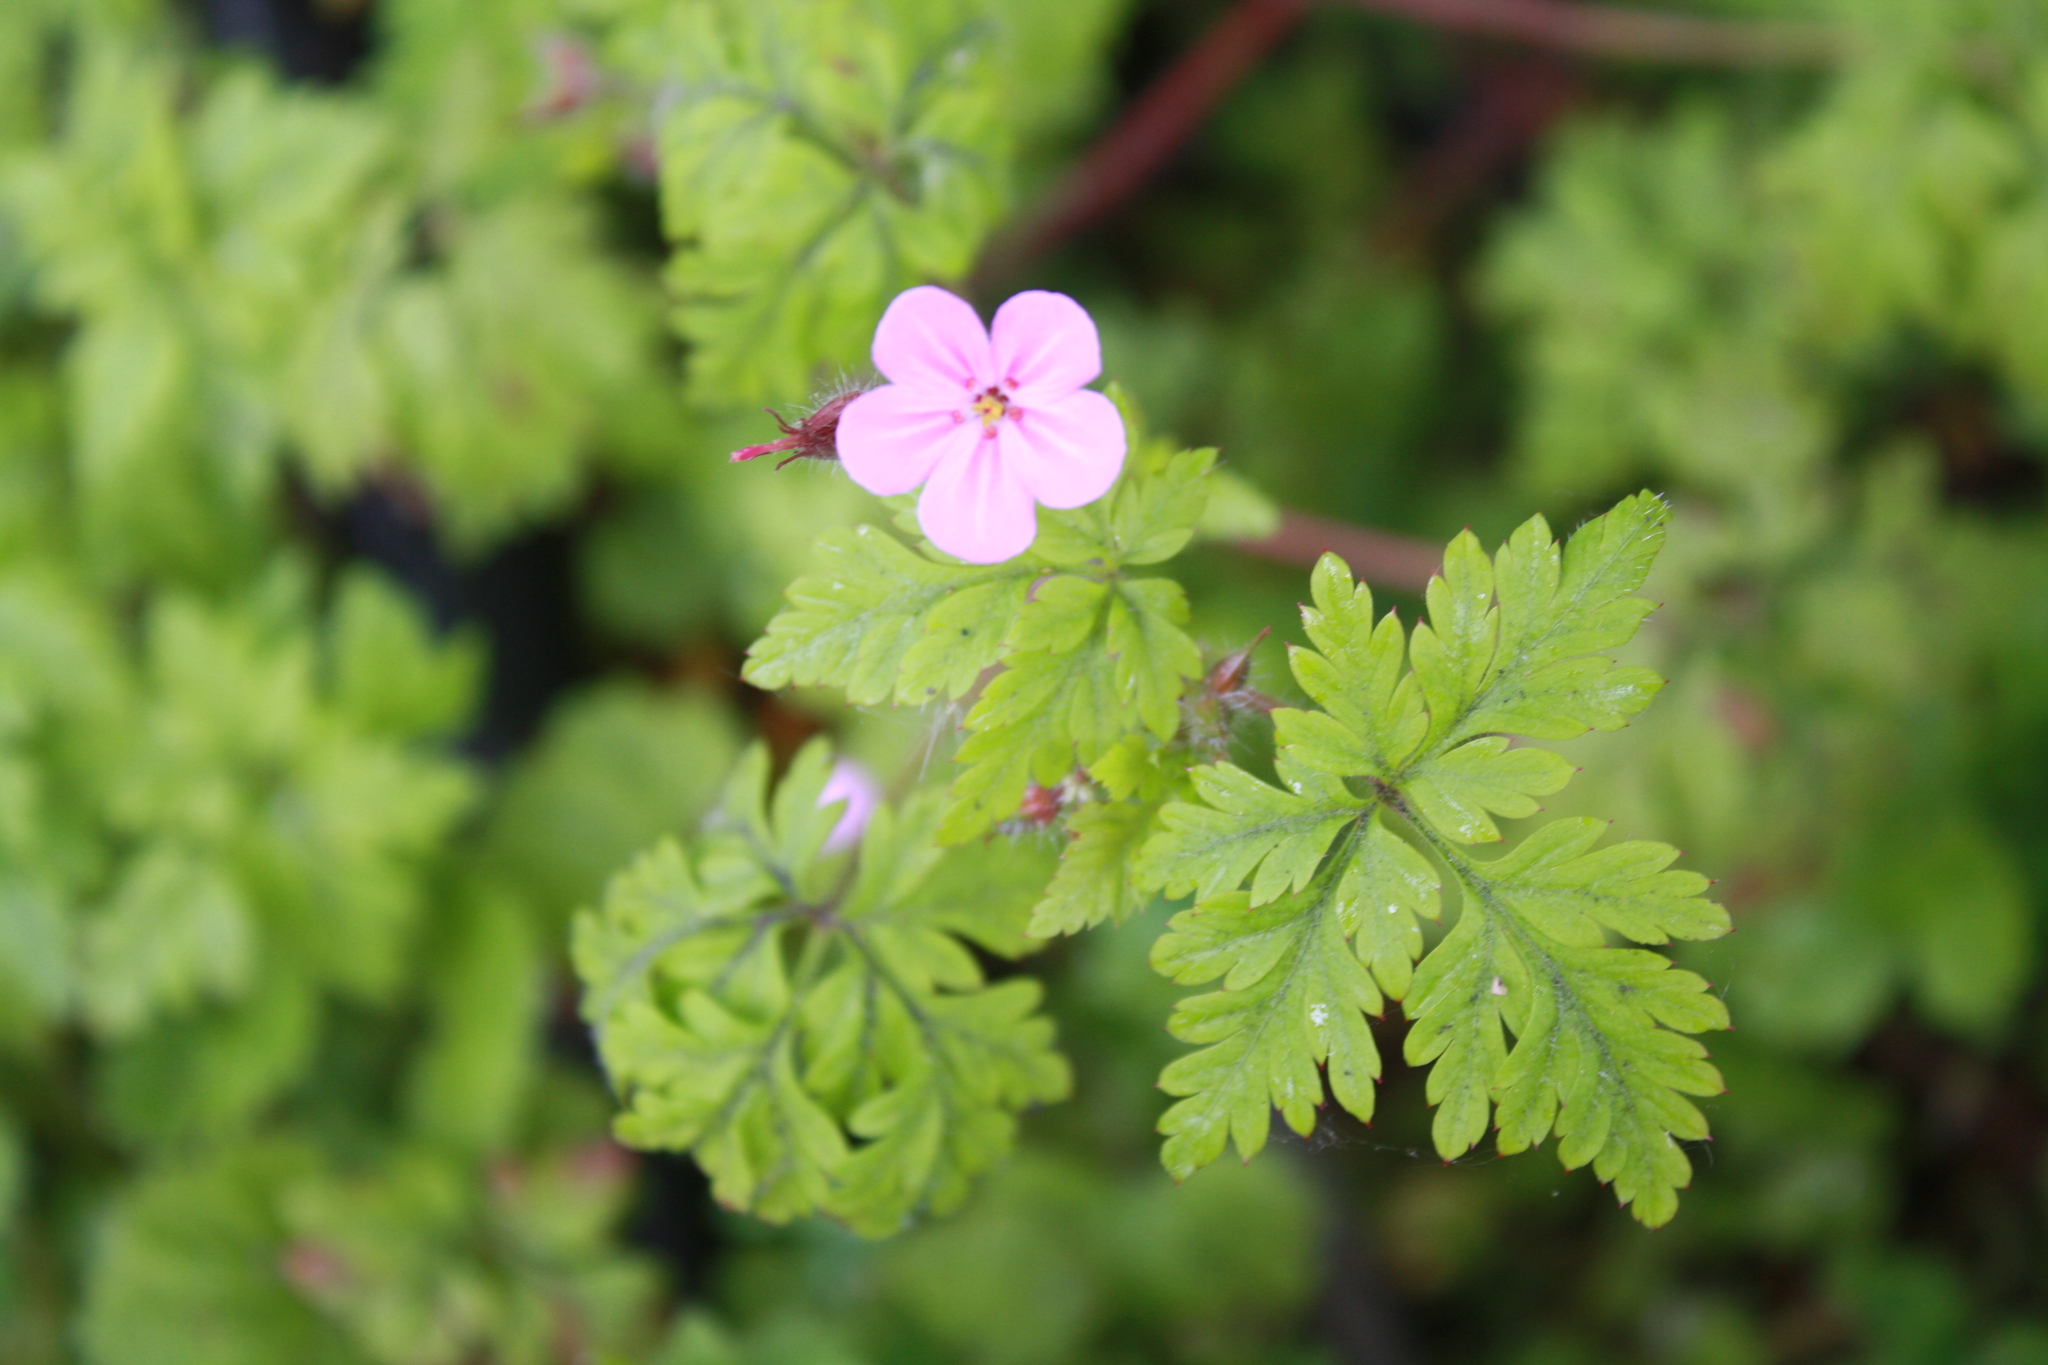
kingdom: Plantae
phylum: Tracheophyta
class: Magnoliopsida
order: Geraniales
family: Geraniaceae
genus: Geranium
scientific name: Geranium robertianum
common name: Herb-robert
